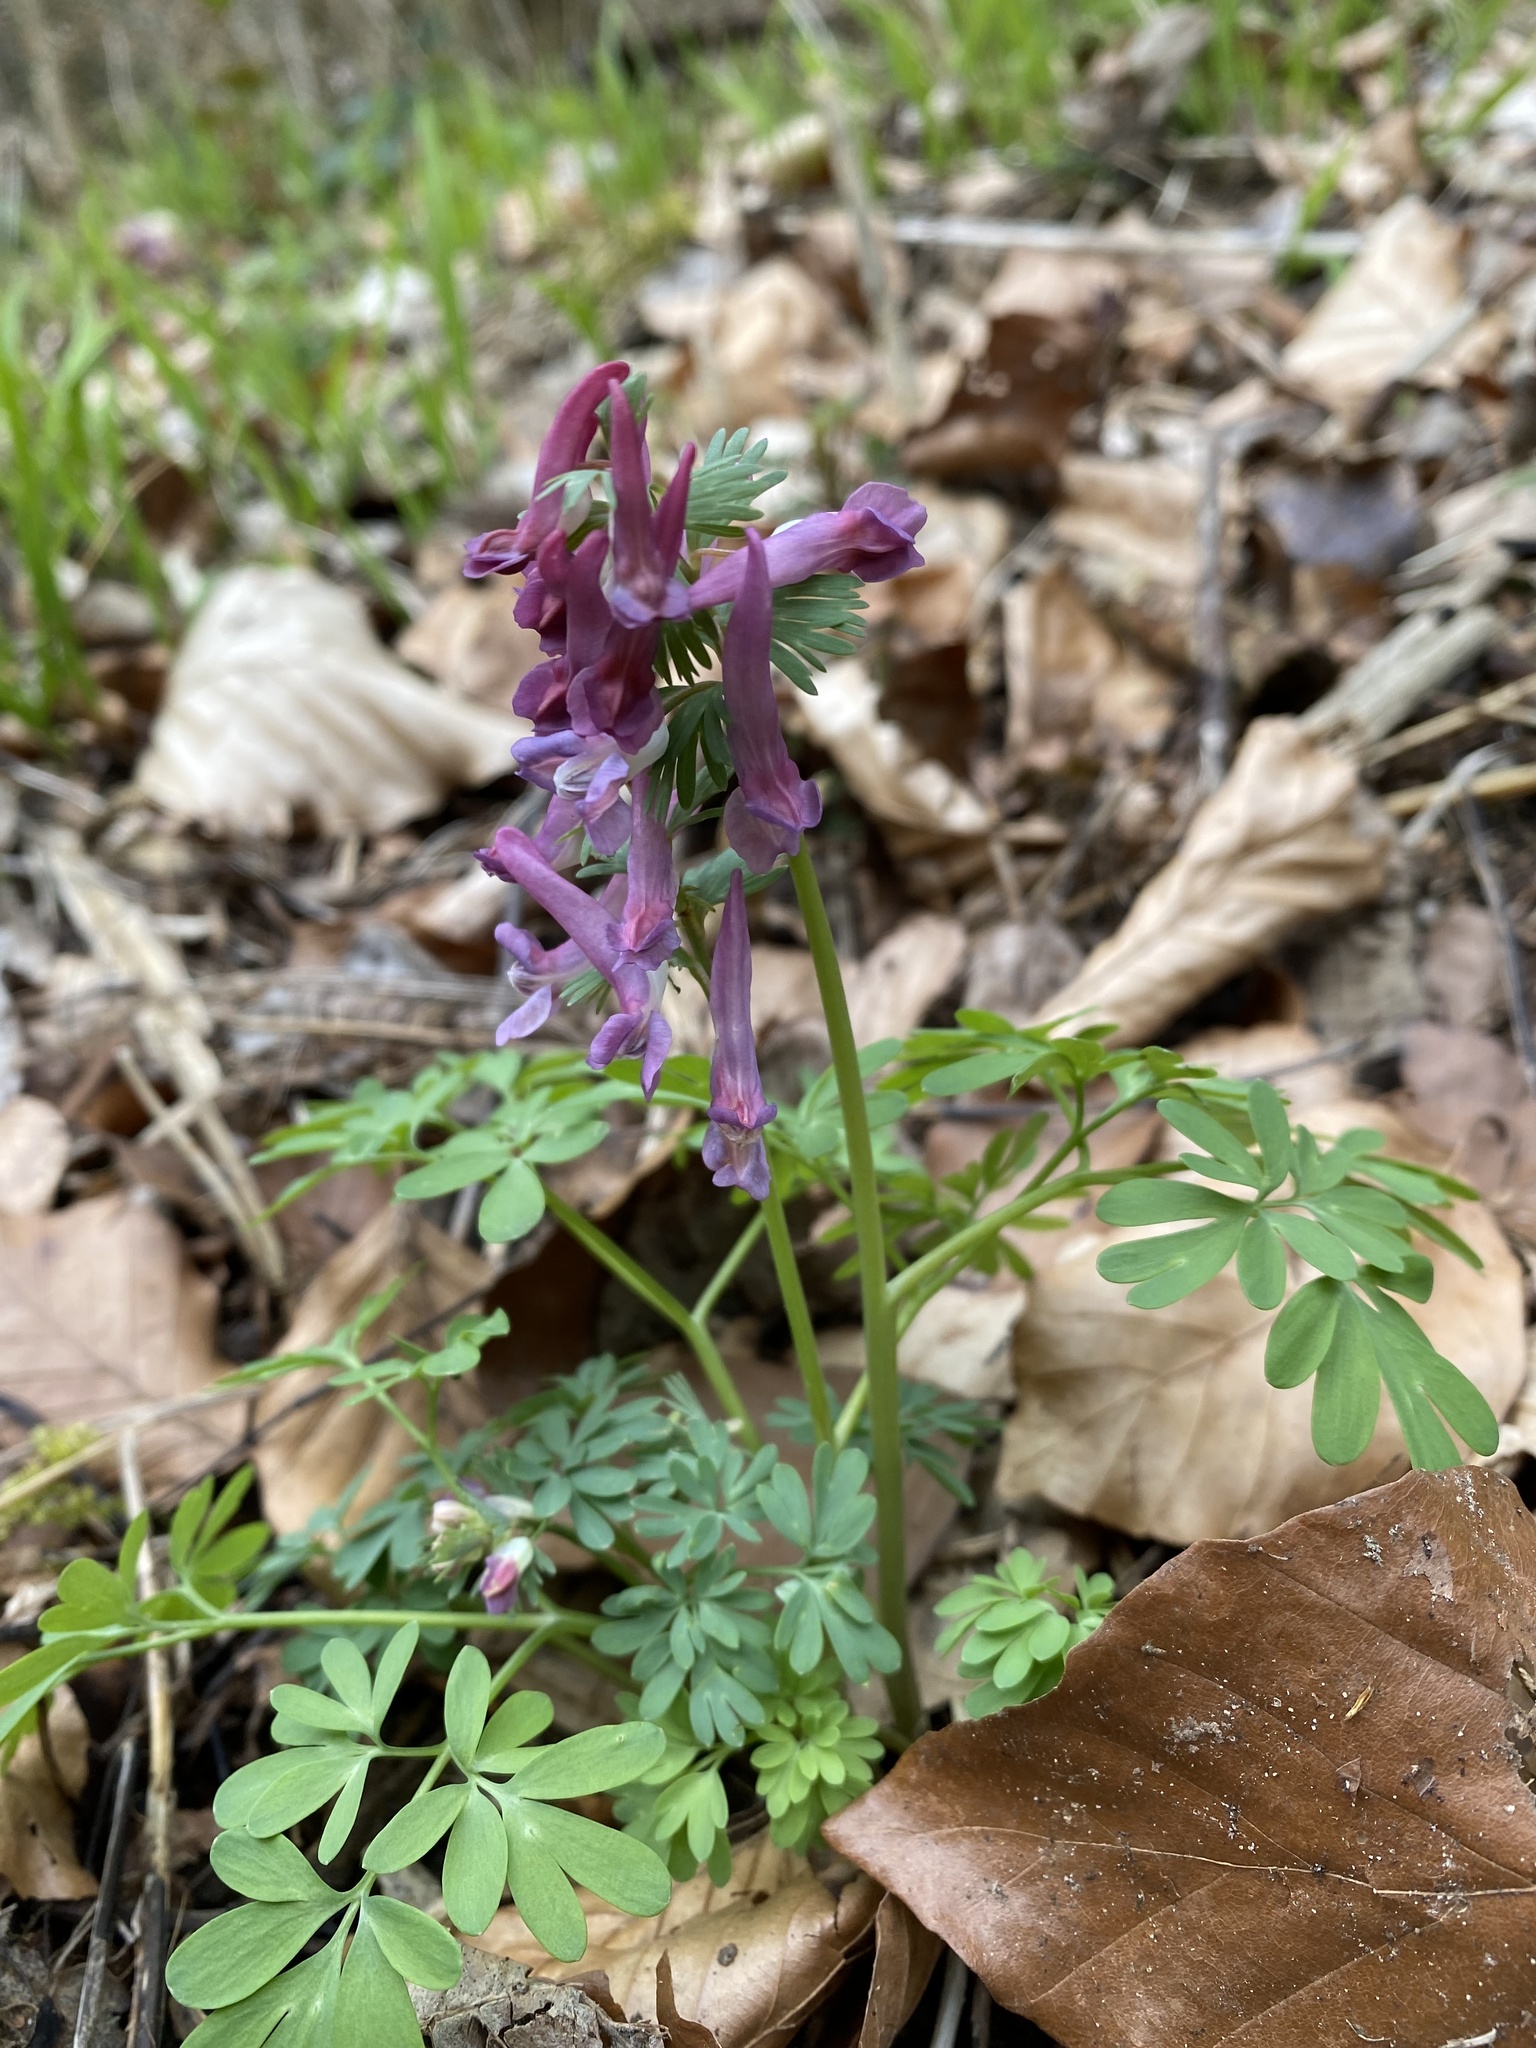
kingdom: Plantae
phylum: Tracheophyta
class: Magnoliopsida
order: Ranunculales
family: Papaveraceae
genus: Corydalis
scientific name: Corydalis solida
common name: Bird-in-a-bush
